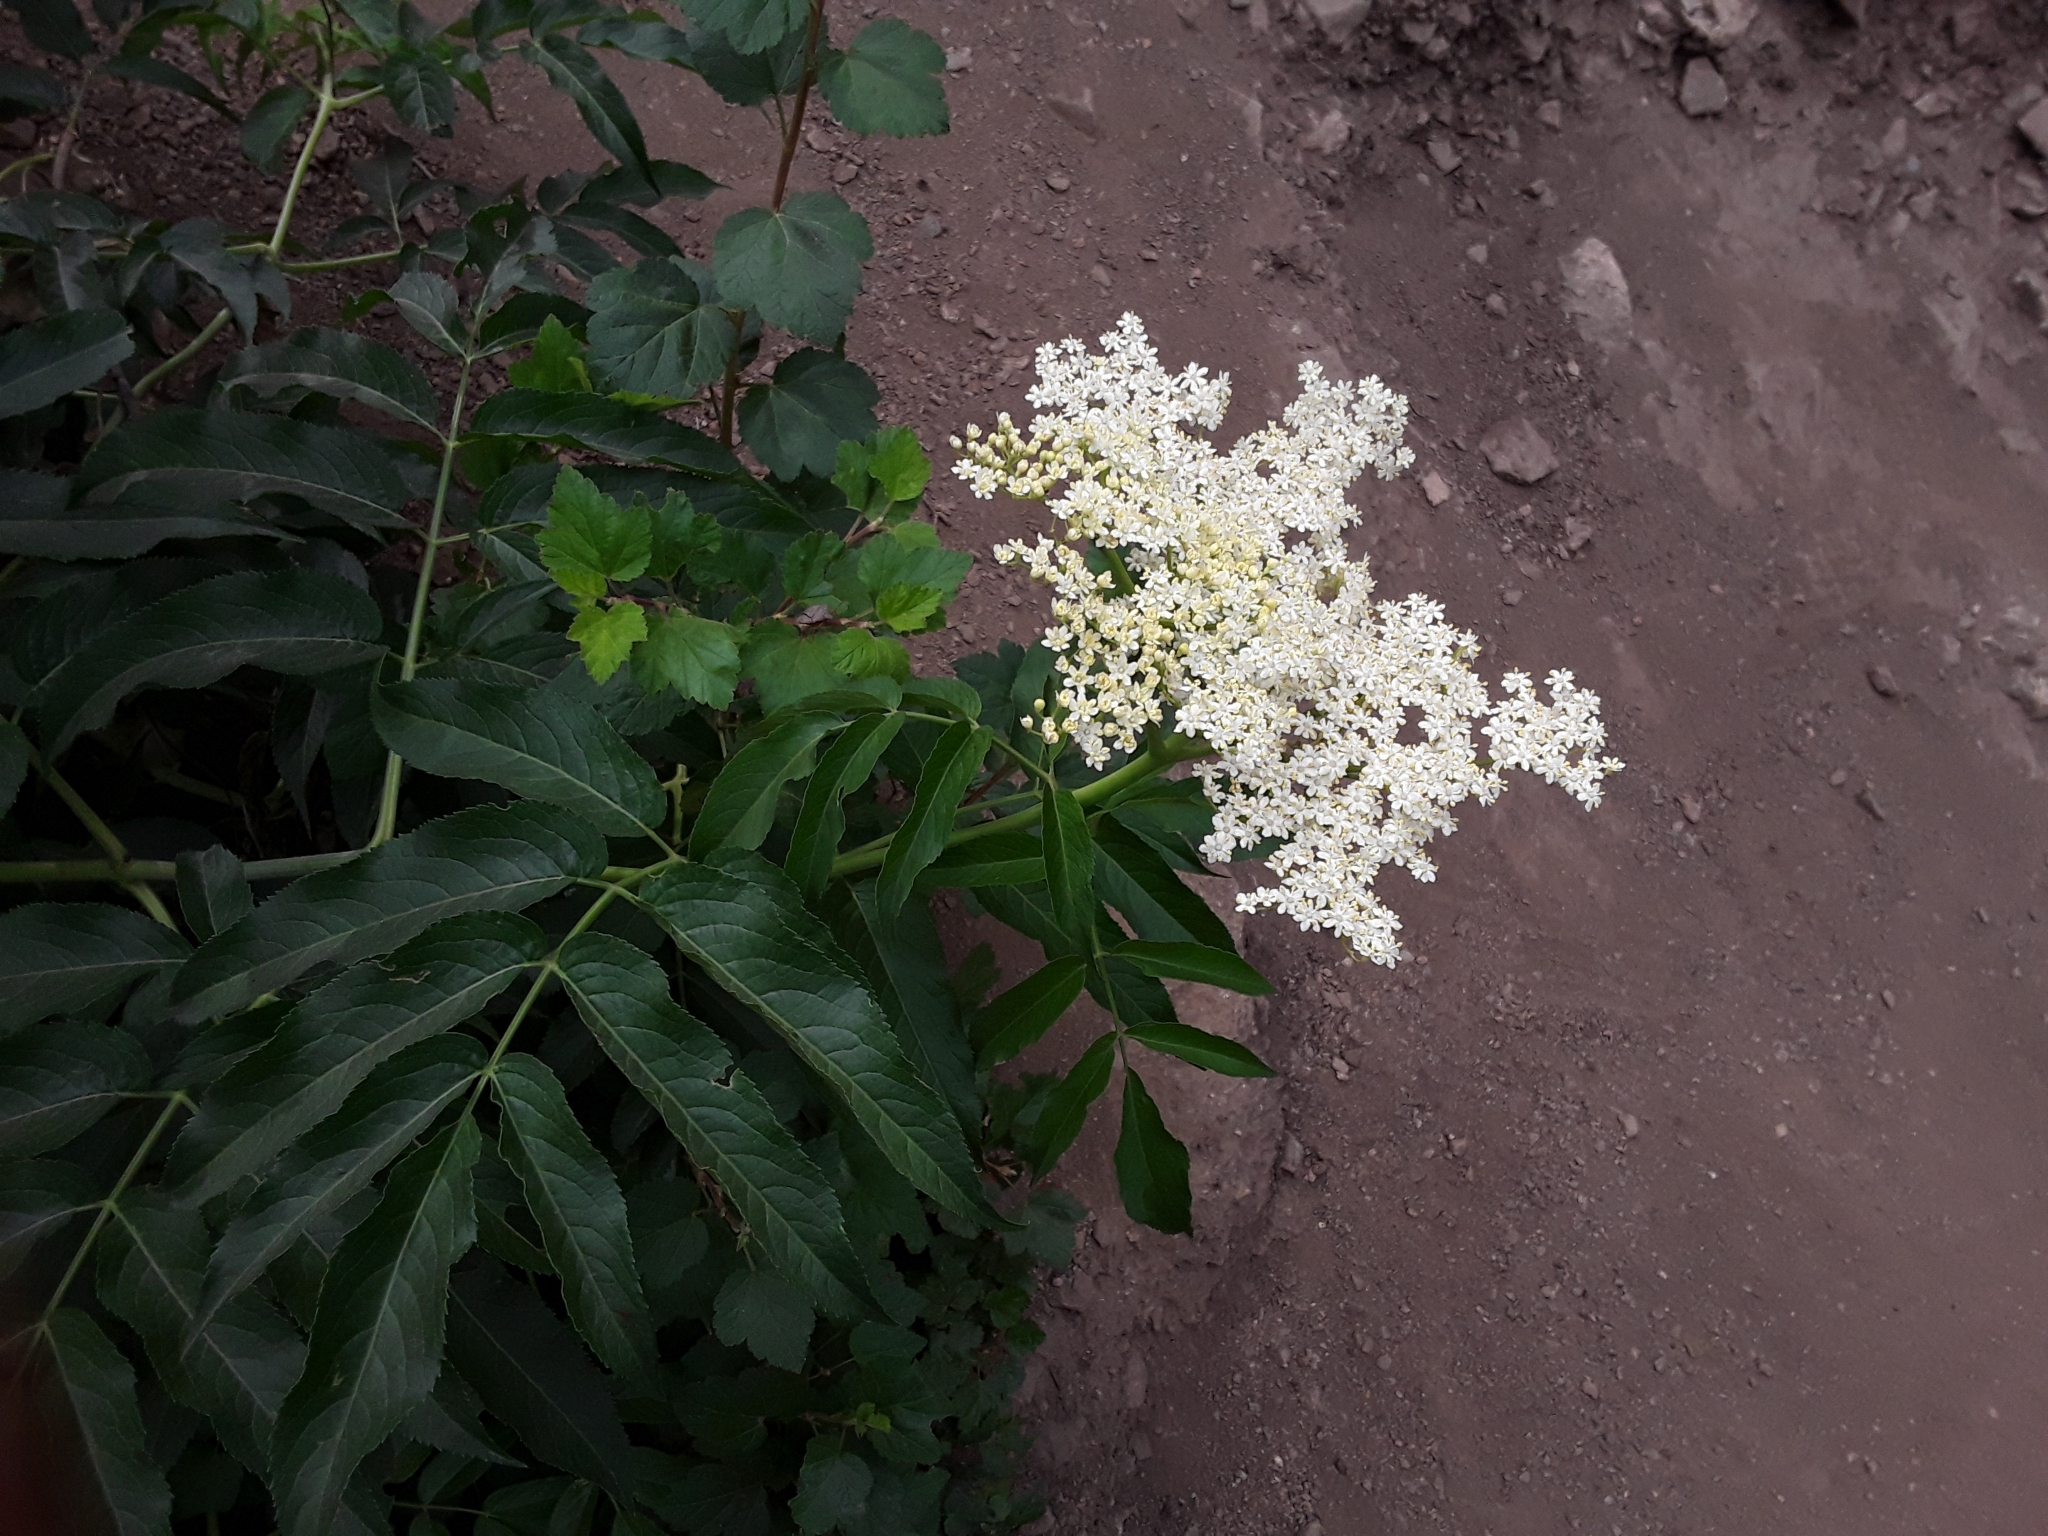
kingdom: Plantae
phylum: Tracheophyta
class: Magnoliopsida
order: Dipsacales
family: Viburnaceae
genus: Sambucus
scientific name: Sambucus cerulea
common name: Blue elder
